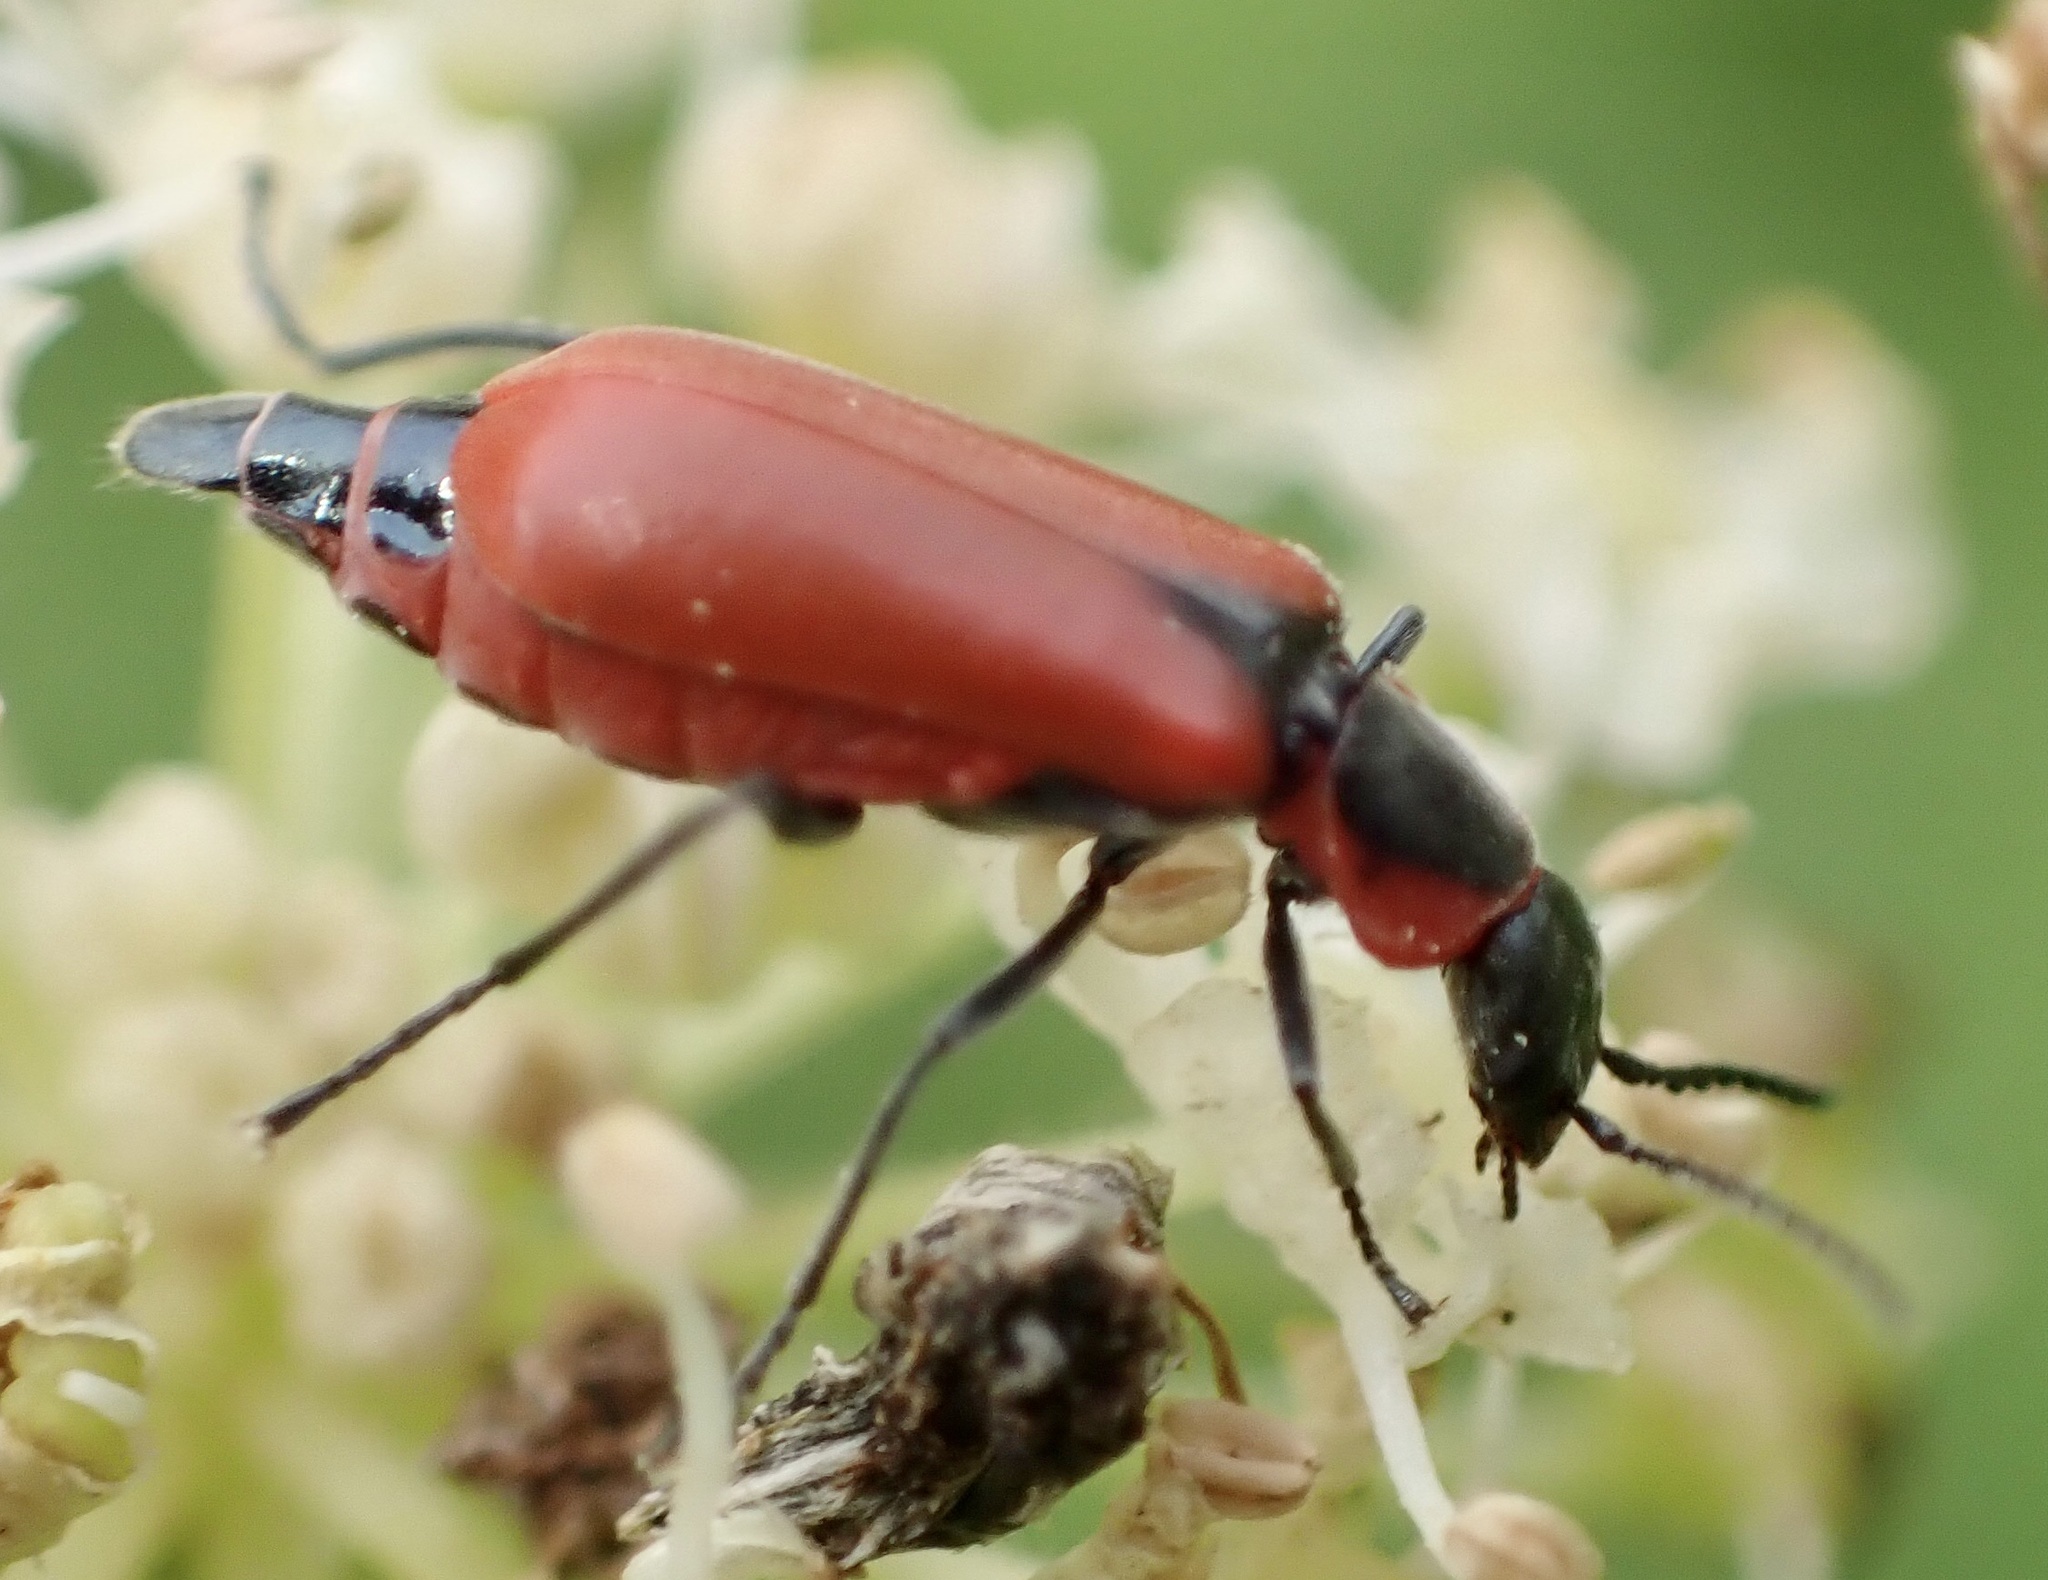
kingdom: Animalia
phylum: Arthropoda
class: Insecta
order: Coleoptera
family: Melyridae
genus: Anthocomus
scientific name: Anthocomus rufus
